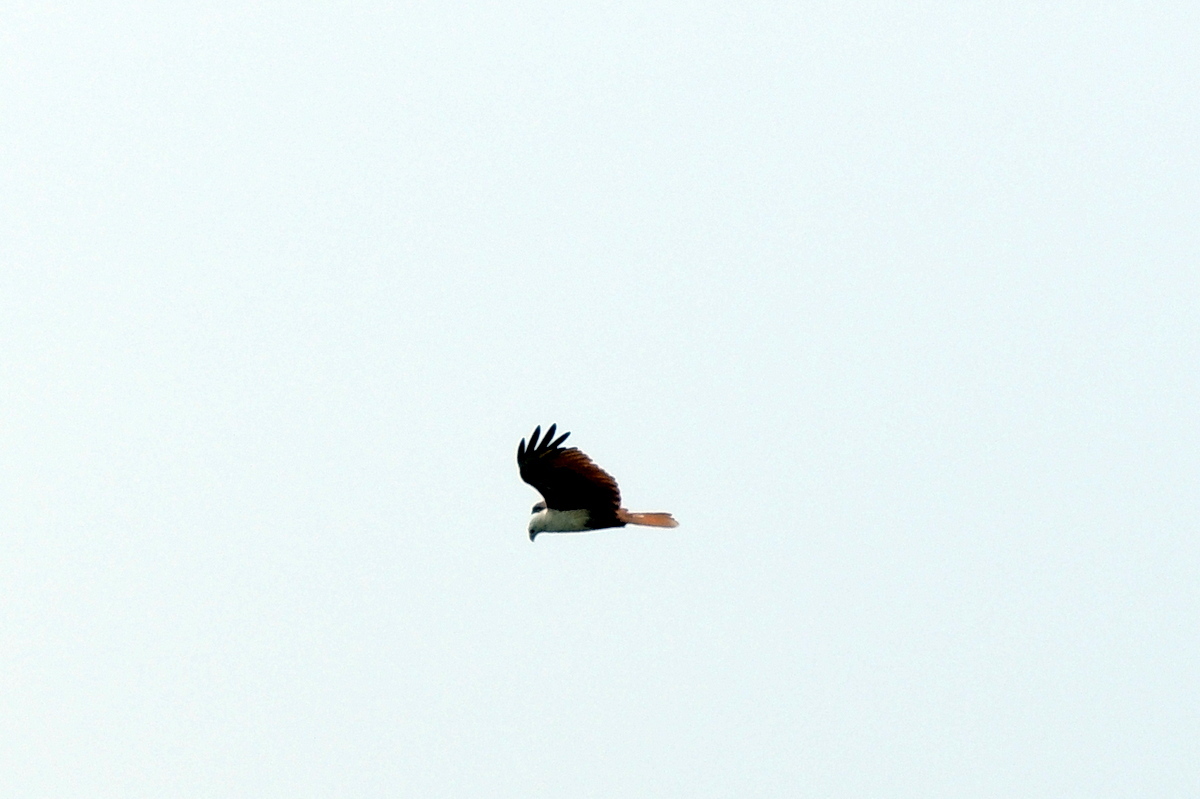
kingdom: Animalia
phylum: Chordata
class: Aves
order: Accipitriformes
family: Accipitridae
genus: Haliastur
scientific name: Haliastur indus
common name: Brahminy kite
